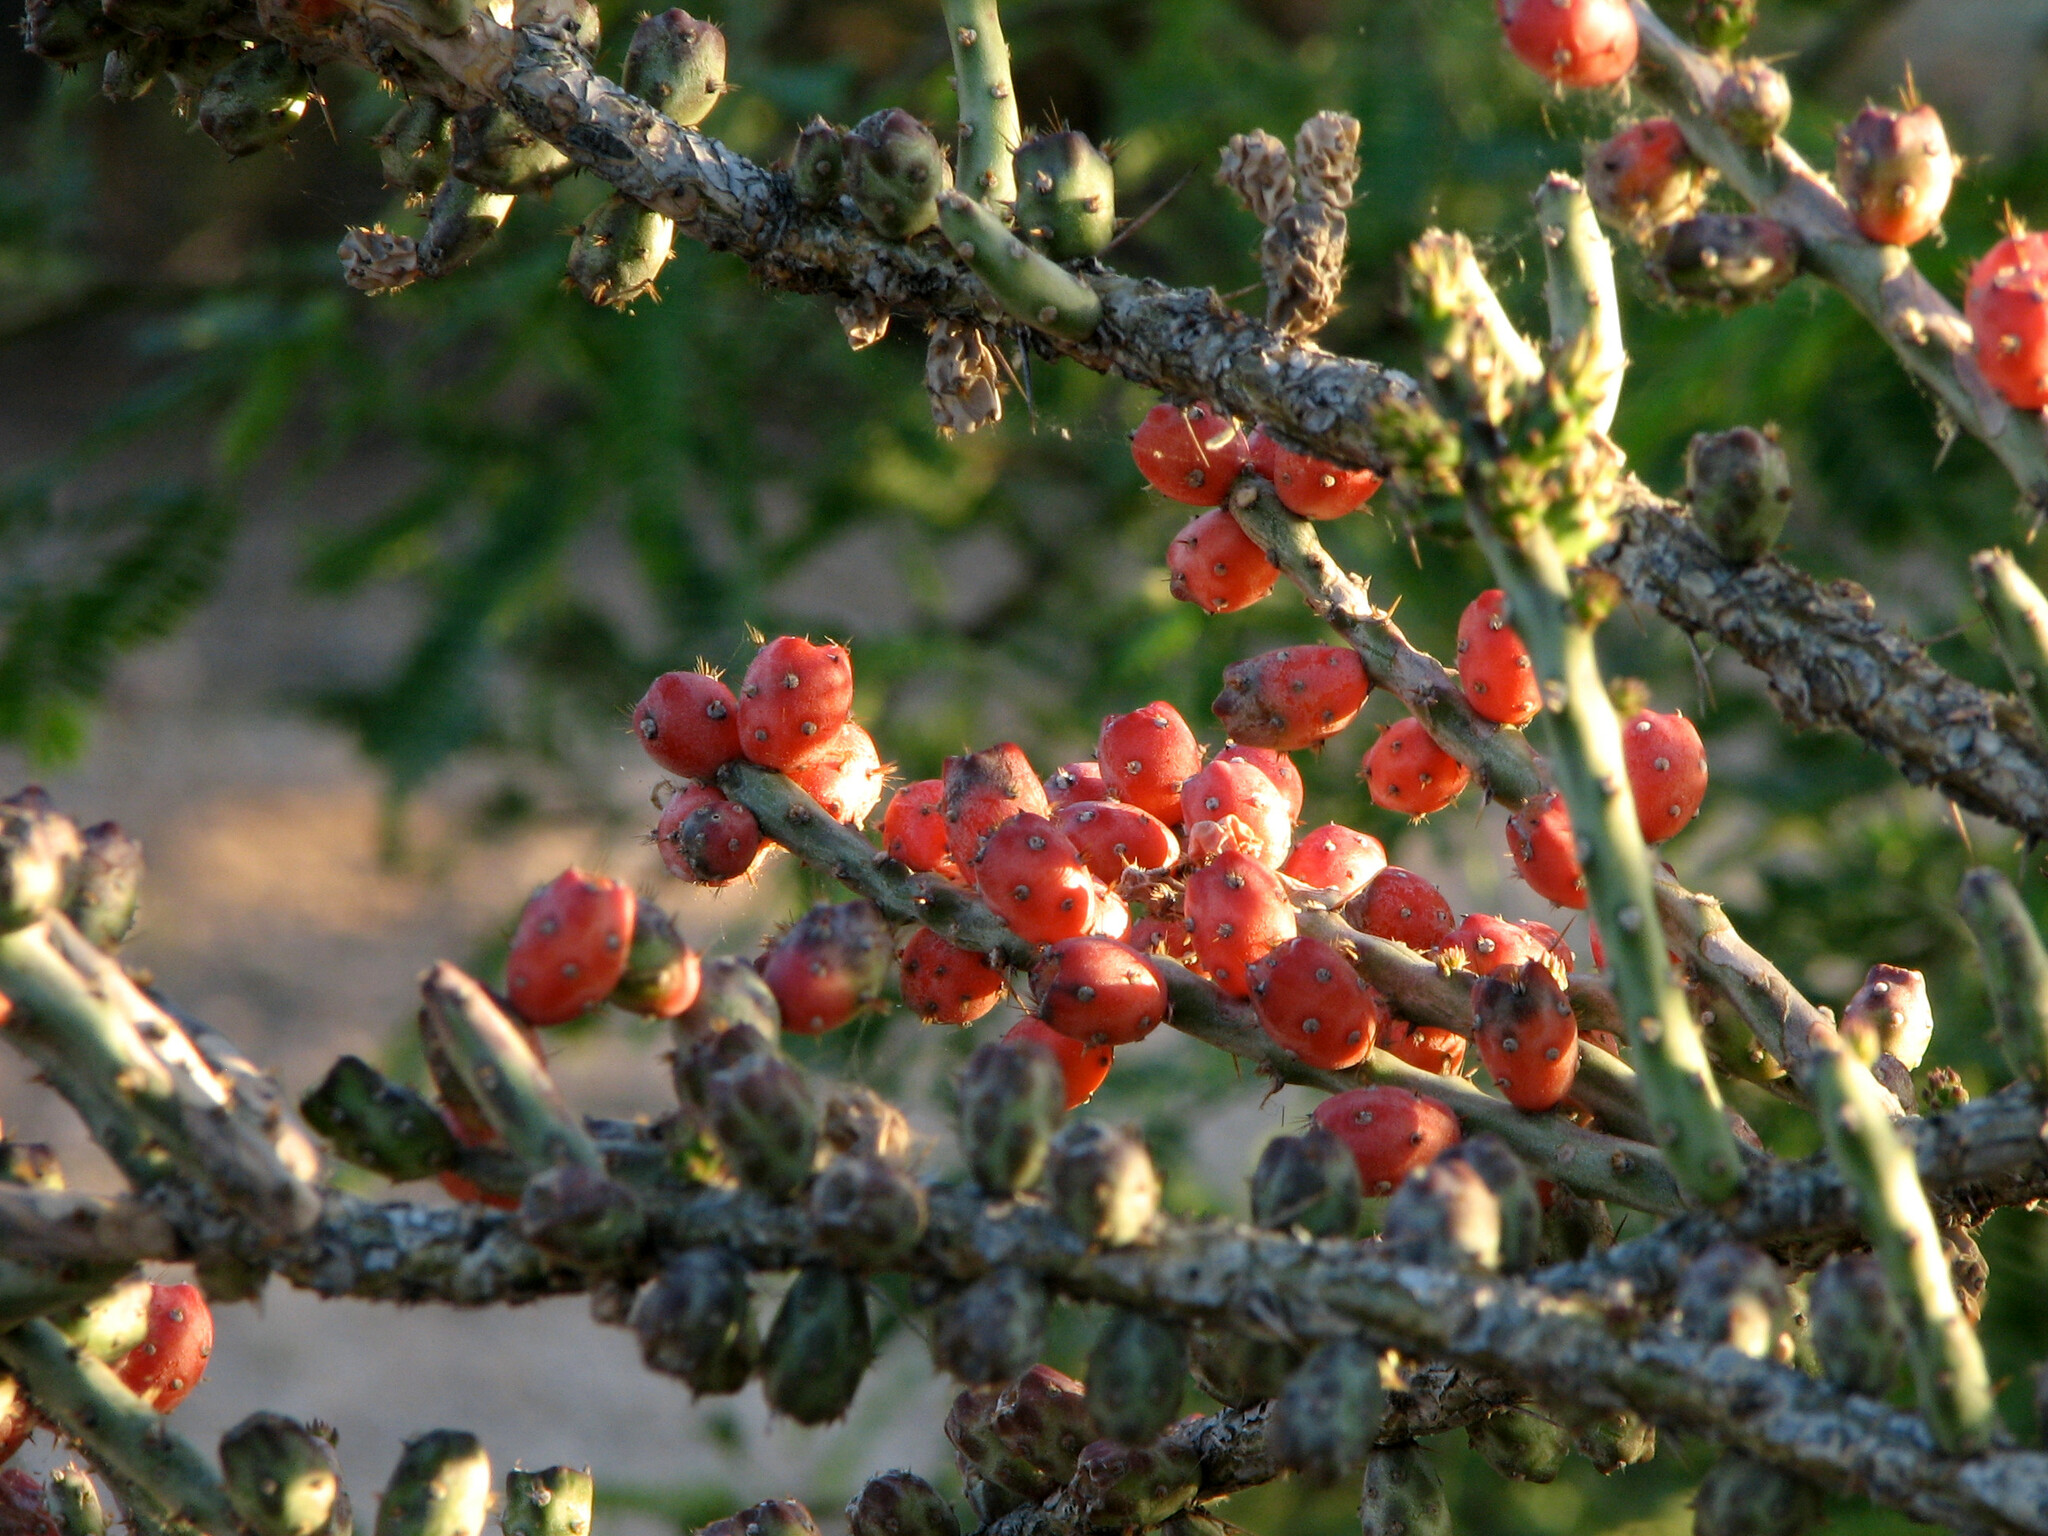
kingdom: Plantae
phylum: Tracheophyta
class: Magnoliopsida
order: Caryophyllales
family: Cactaceae
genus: Cylindropuntia
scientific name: Cylindropuntia leptocaulis
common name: Christmas cactus
